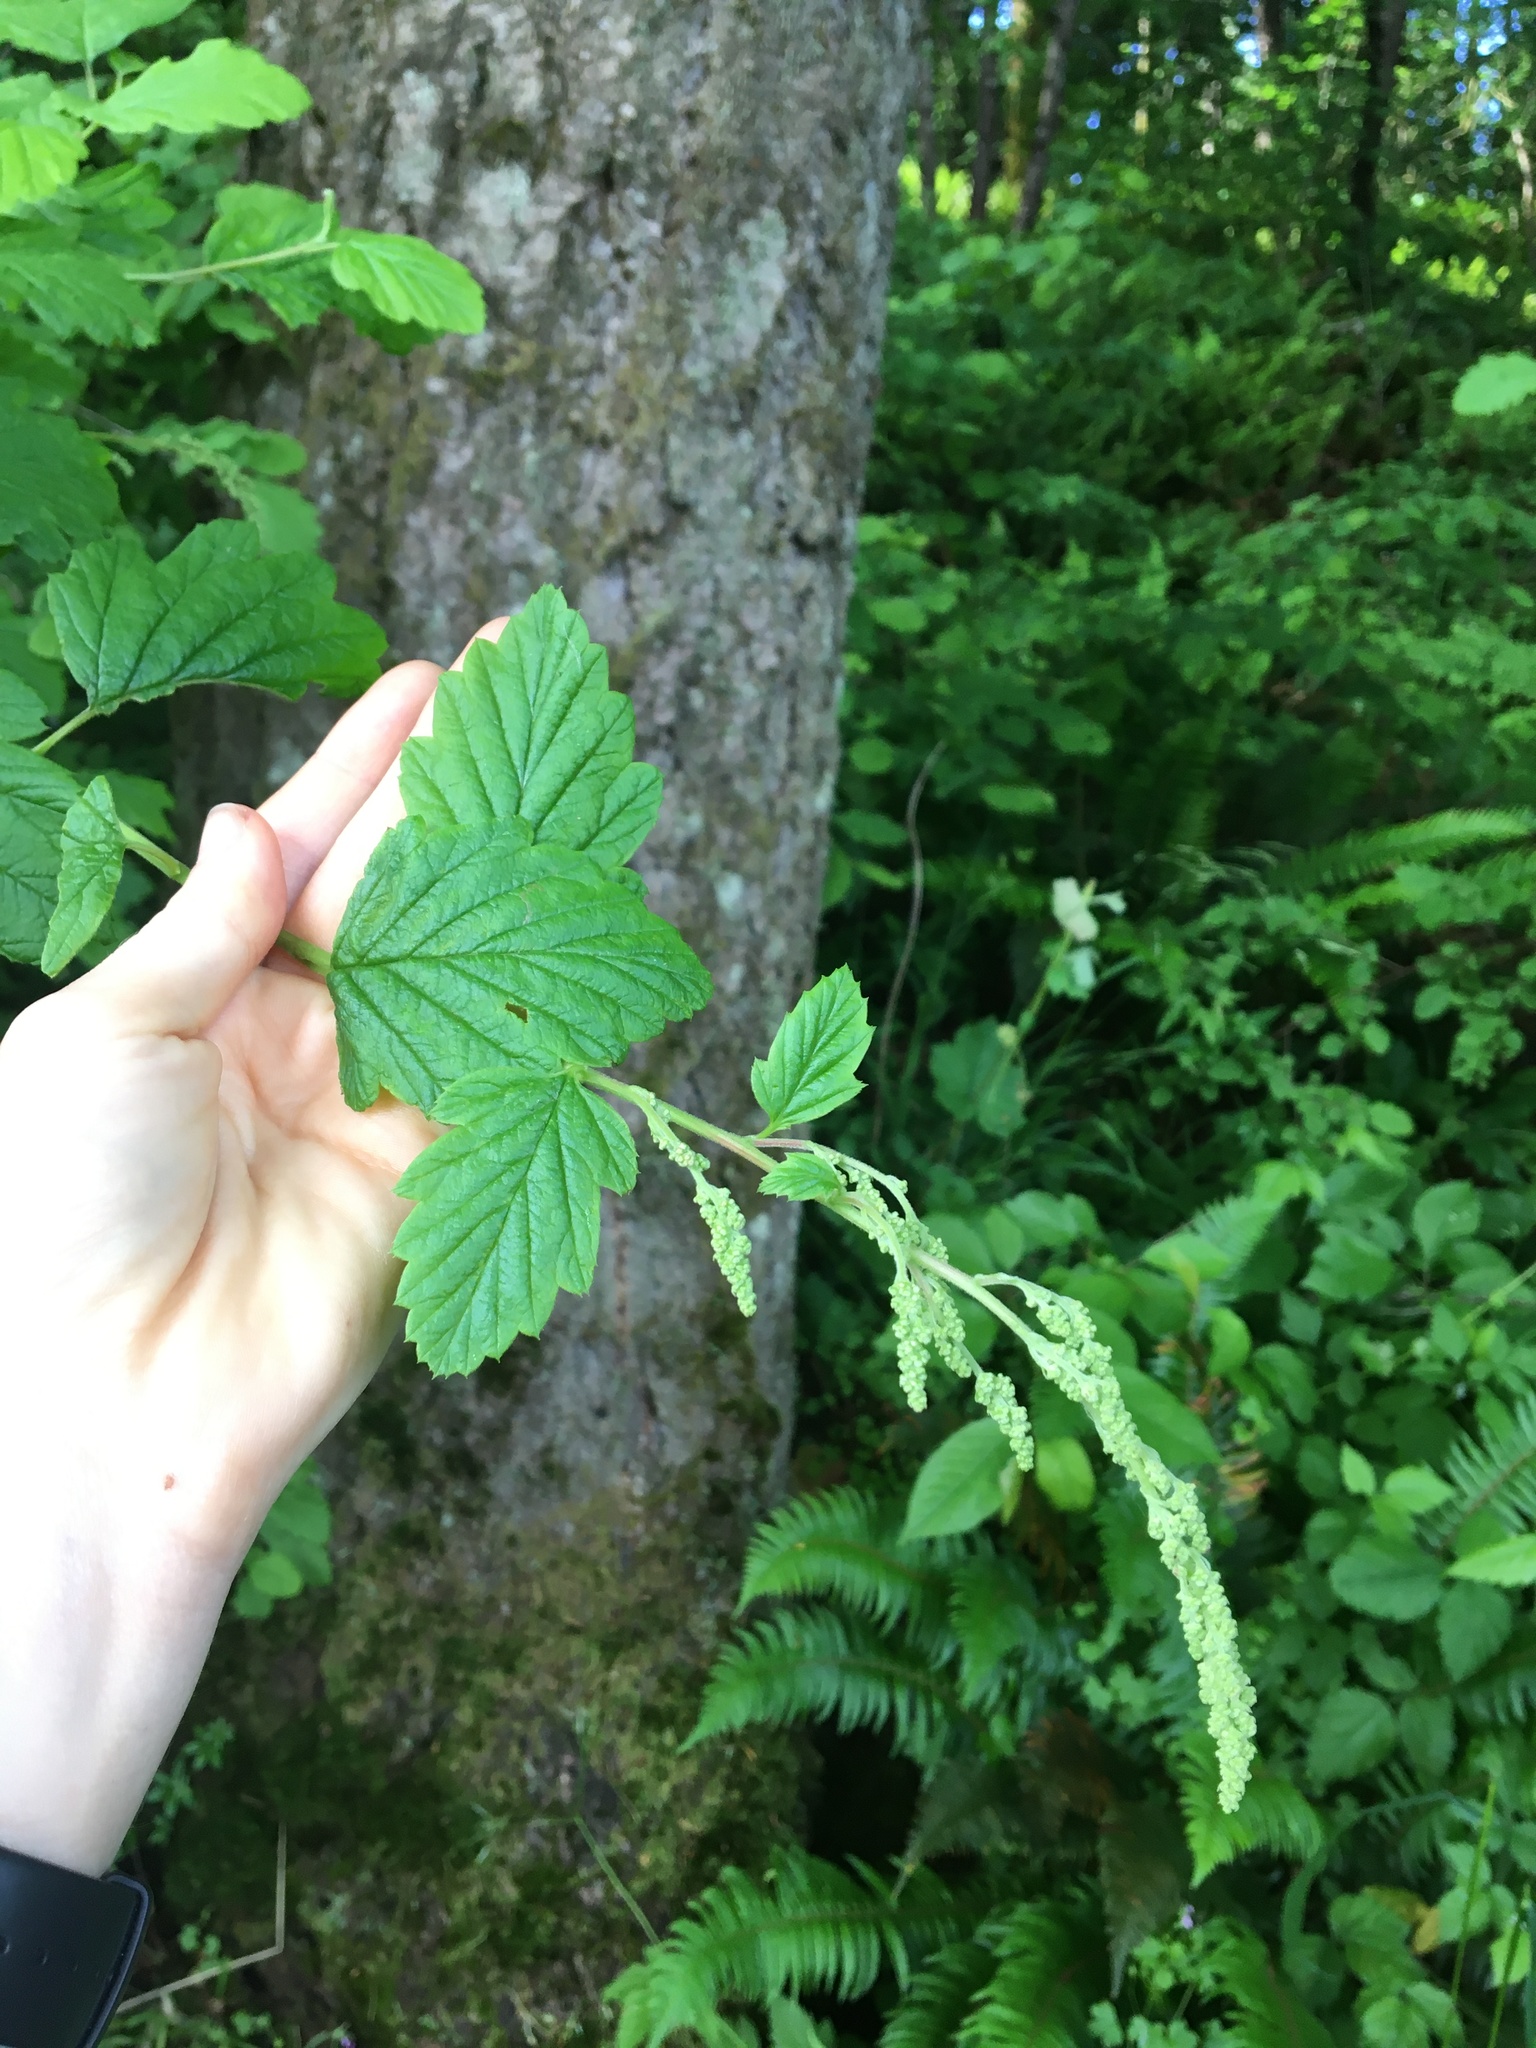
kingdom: Plantae
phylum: Tracheophyta
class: Magnoliopsida
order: Rosales
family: Rosaceae
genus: Holodiscus
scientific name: Holodiscus discolor
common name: Oceanspray
